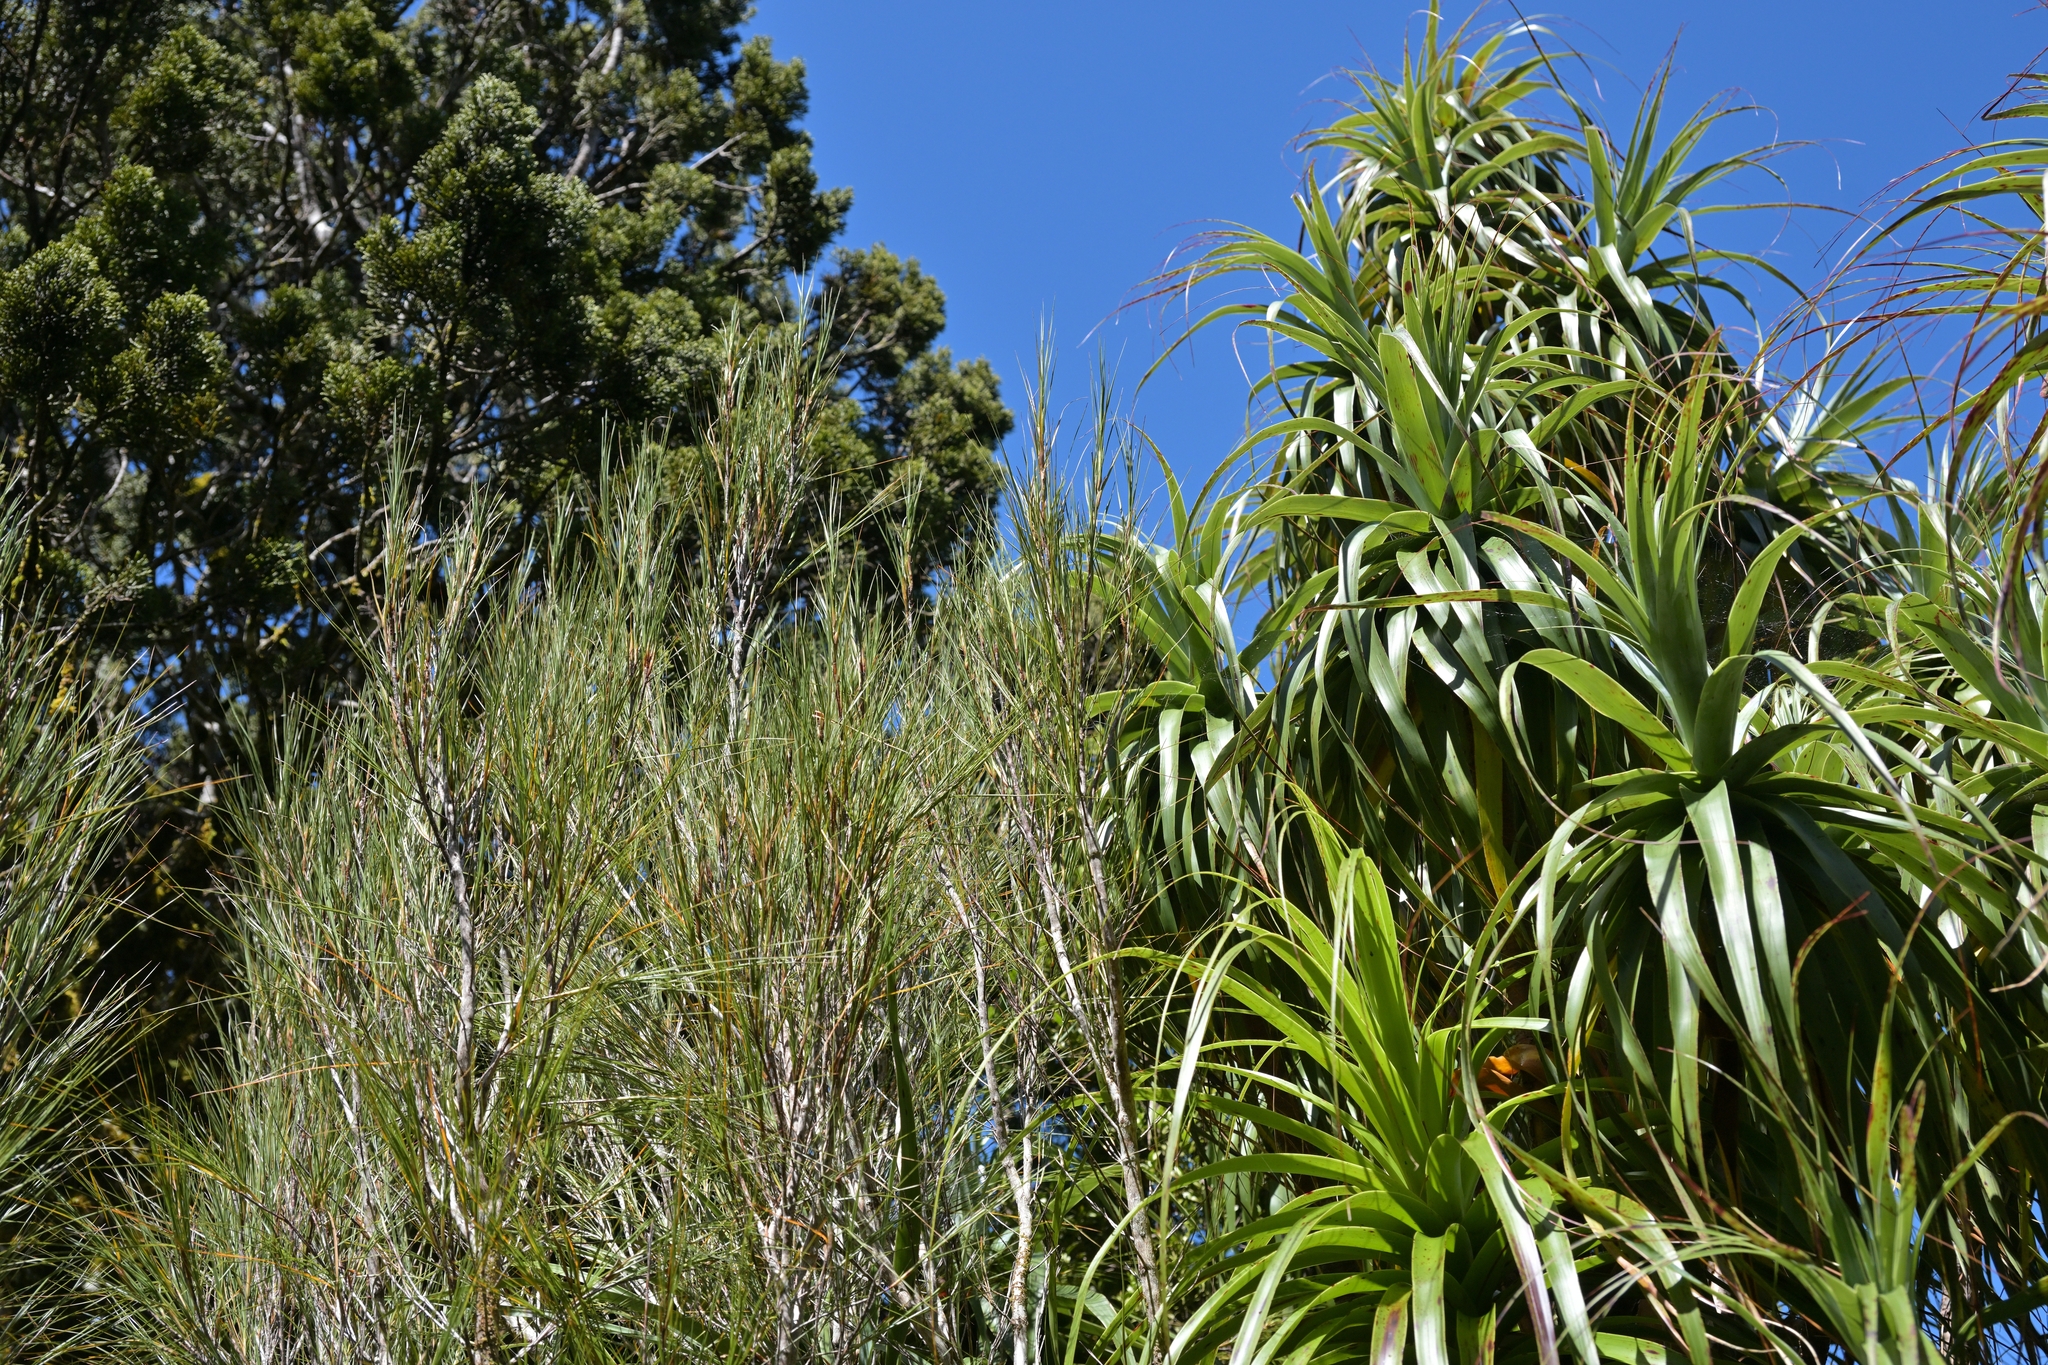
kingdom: Plantae
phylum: Tracheophyta
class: Magnoliopsida
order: Ericales
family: Ericaceae
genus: Dracophyllum
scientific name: Dracophyllum longifolium
